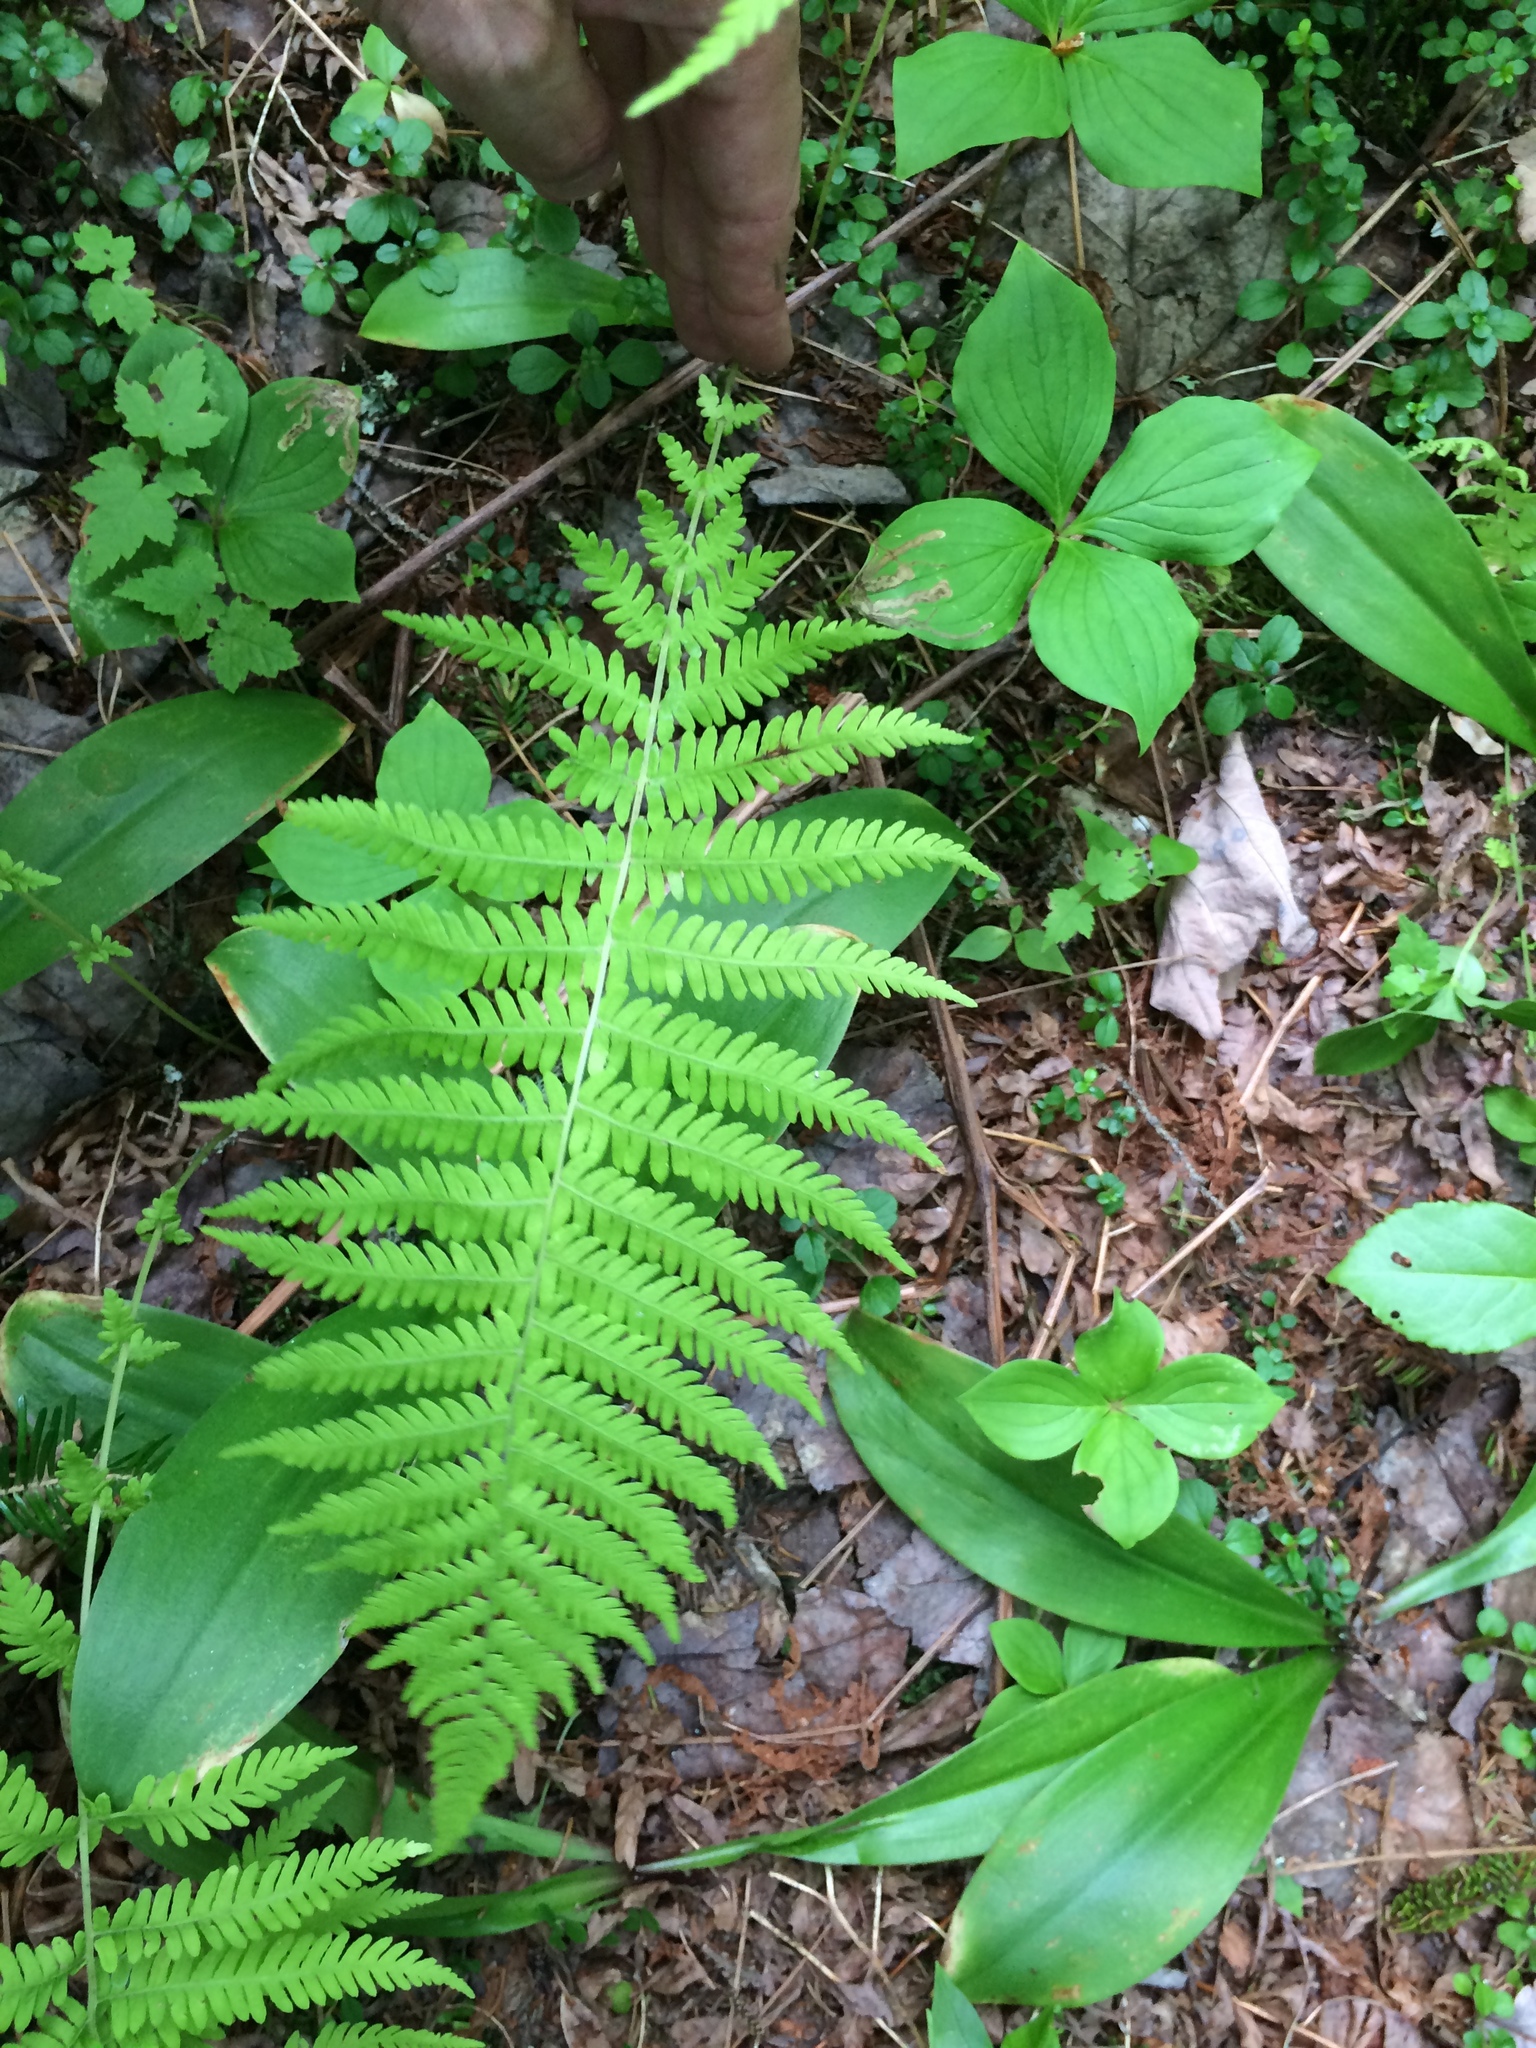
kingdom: Plantae
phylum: Tracheophyta
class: Polypodiopsida
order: Polypodiales
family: Thelypteridaceae
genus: Amauropelta
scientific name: Amauropelta noveboracensis
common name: New york fern
